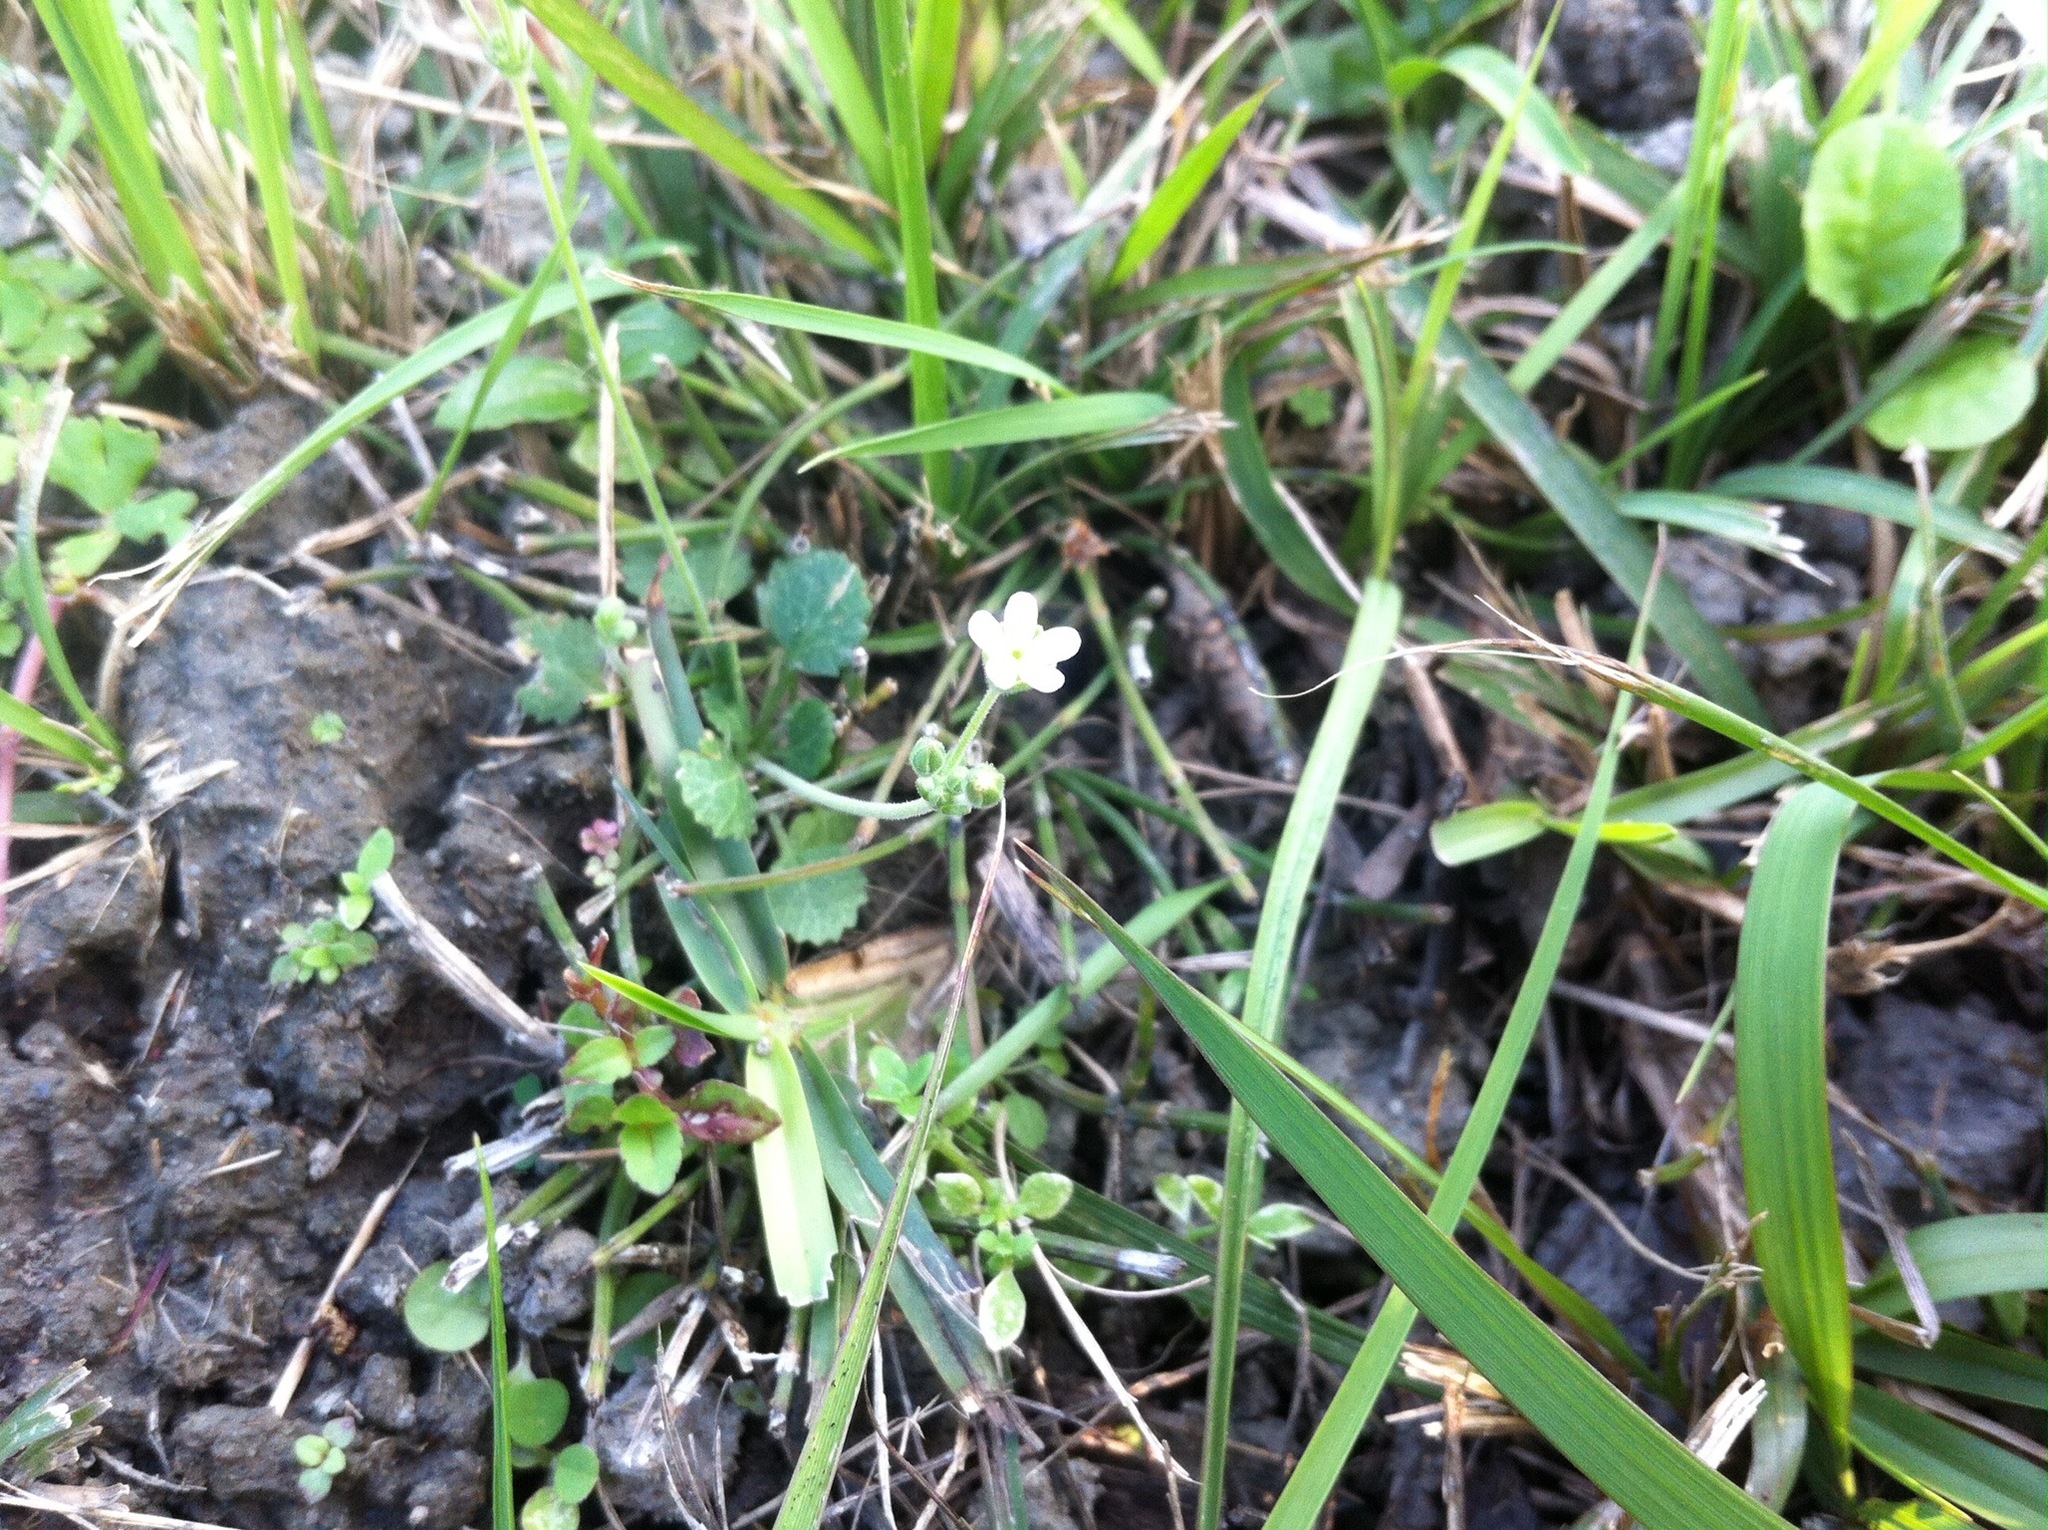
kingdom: Plantae
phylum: Tracheophyta
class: Magnoliopsida
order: Ericales
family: Primulaceae
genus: Androsace
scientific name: Androsace umbellata
